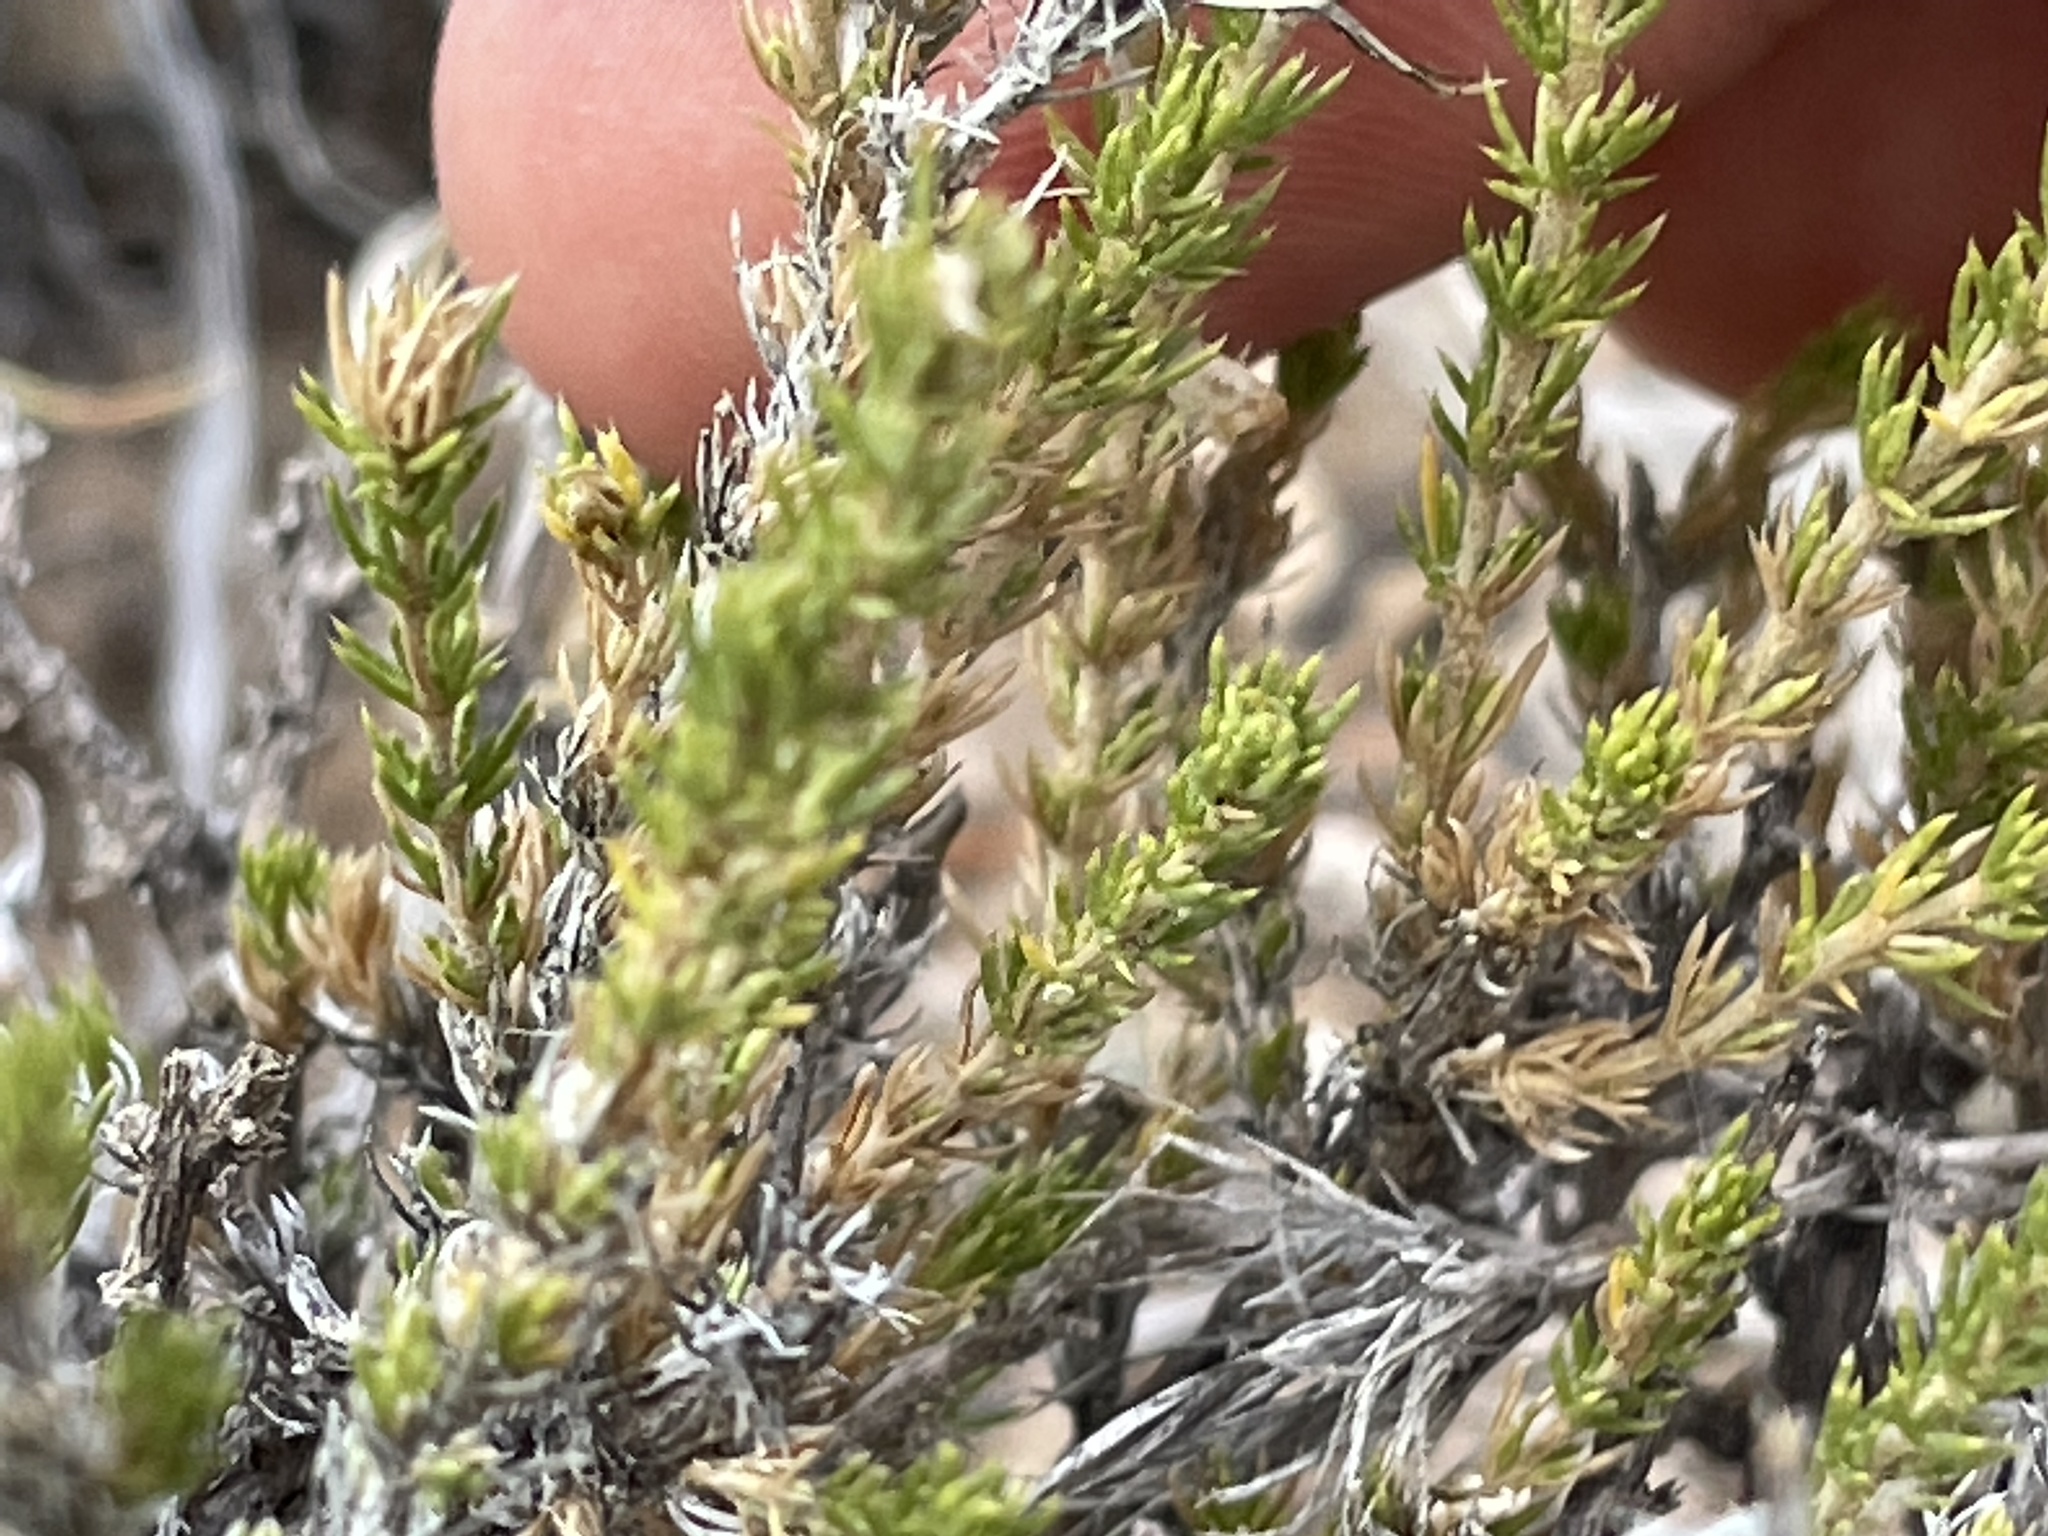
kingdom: Plantae
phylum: Tracheophyta
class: Magnoliopsida
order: Ericales
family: Polemoniaceae
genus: Linanthus
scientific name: Linanthus pungens
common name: Granite prickly phlox
